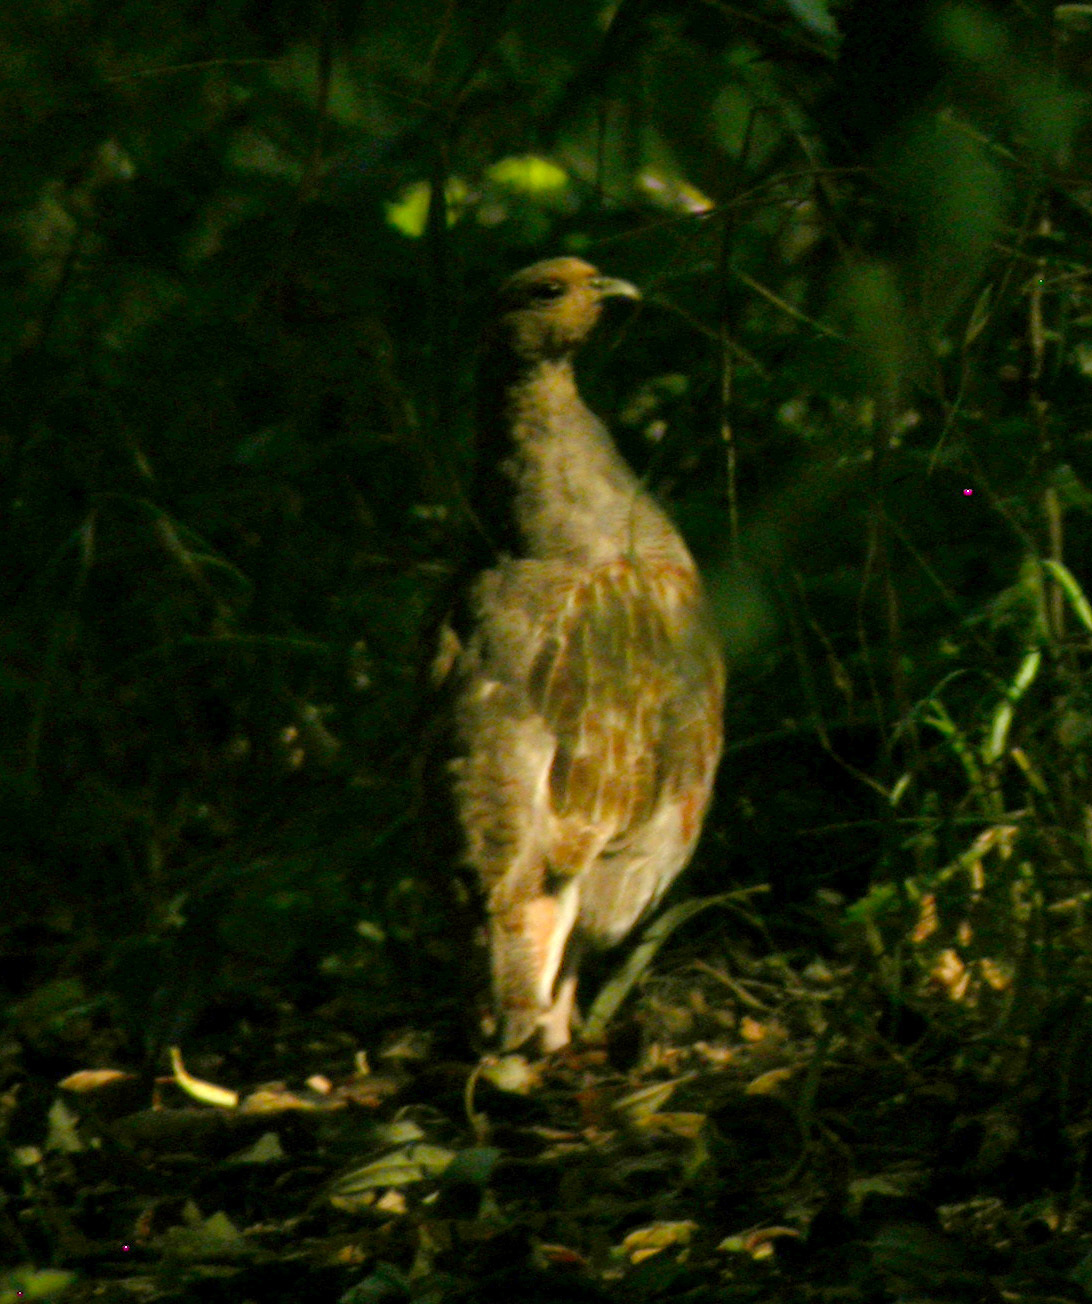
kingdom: Animalia
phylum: Chordata
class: Aves
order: Galliformes
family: Phasianidae
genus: Perdix
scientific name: Perdix perdix
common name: Grey partridge
